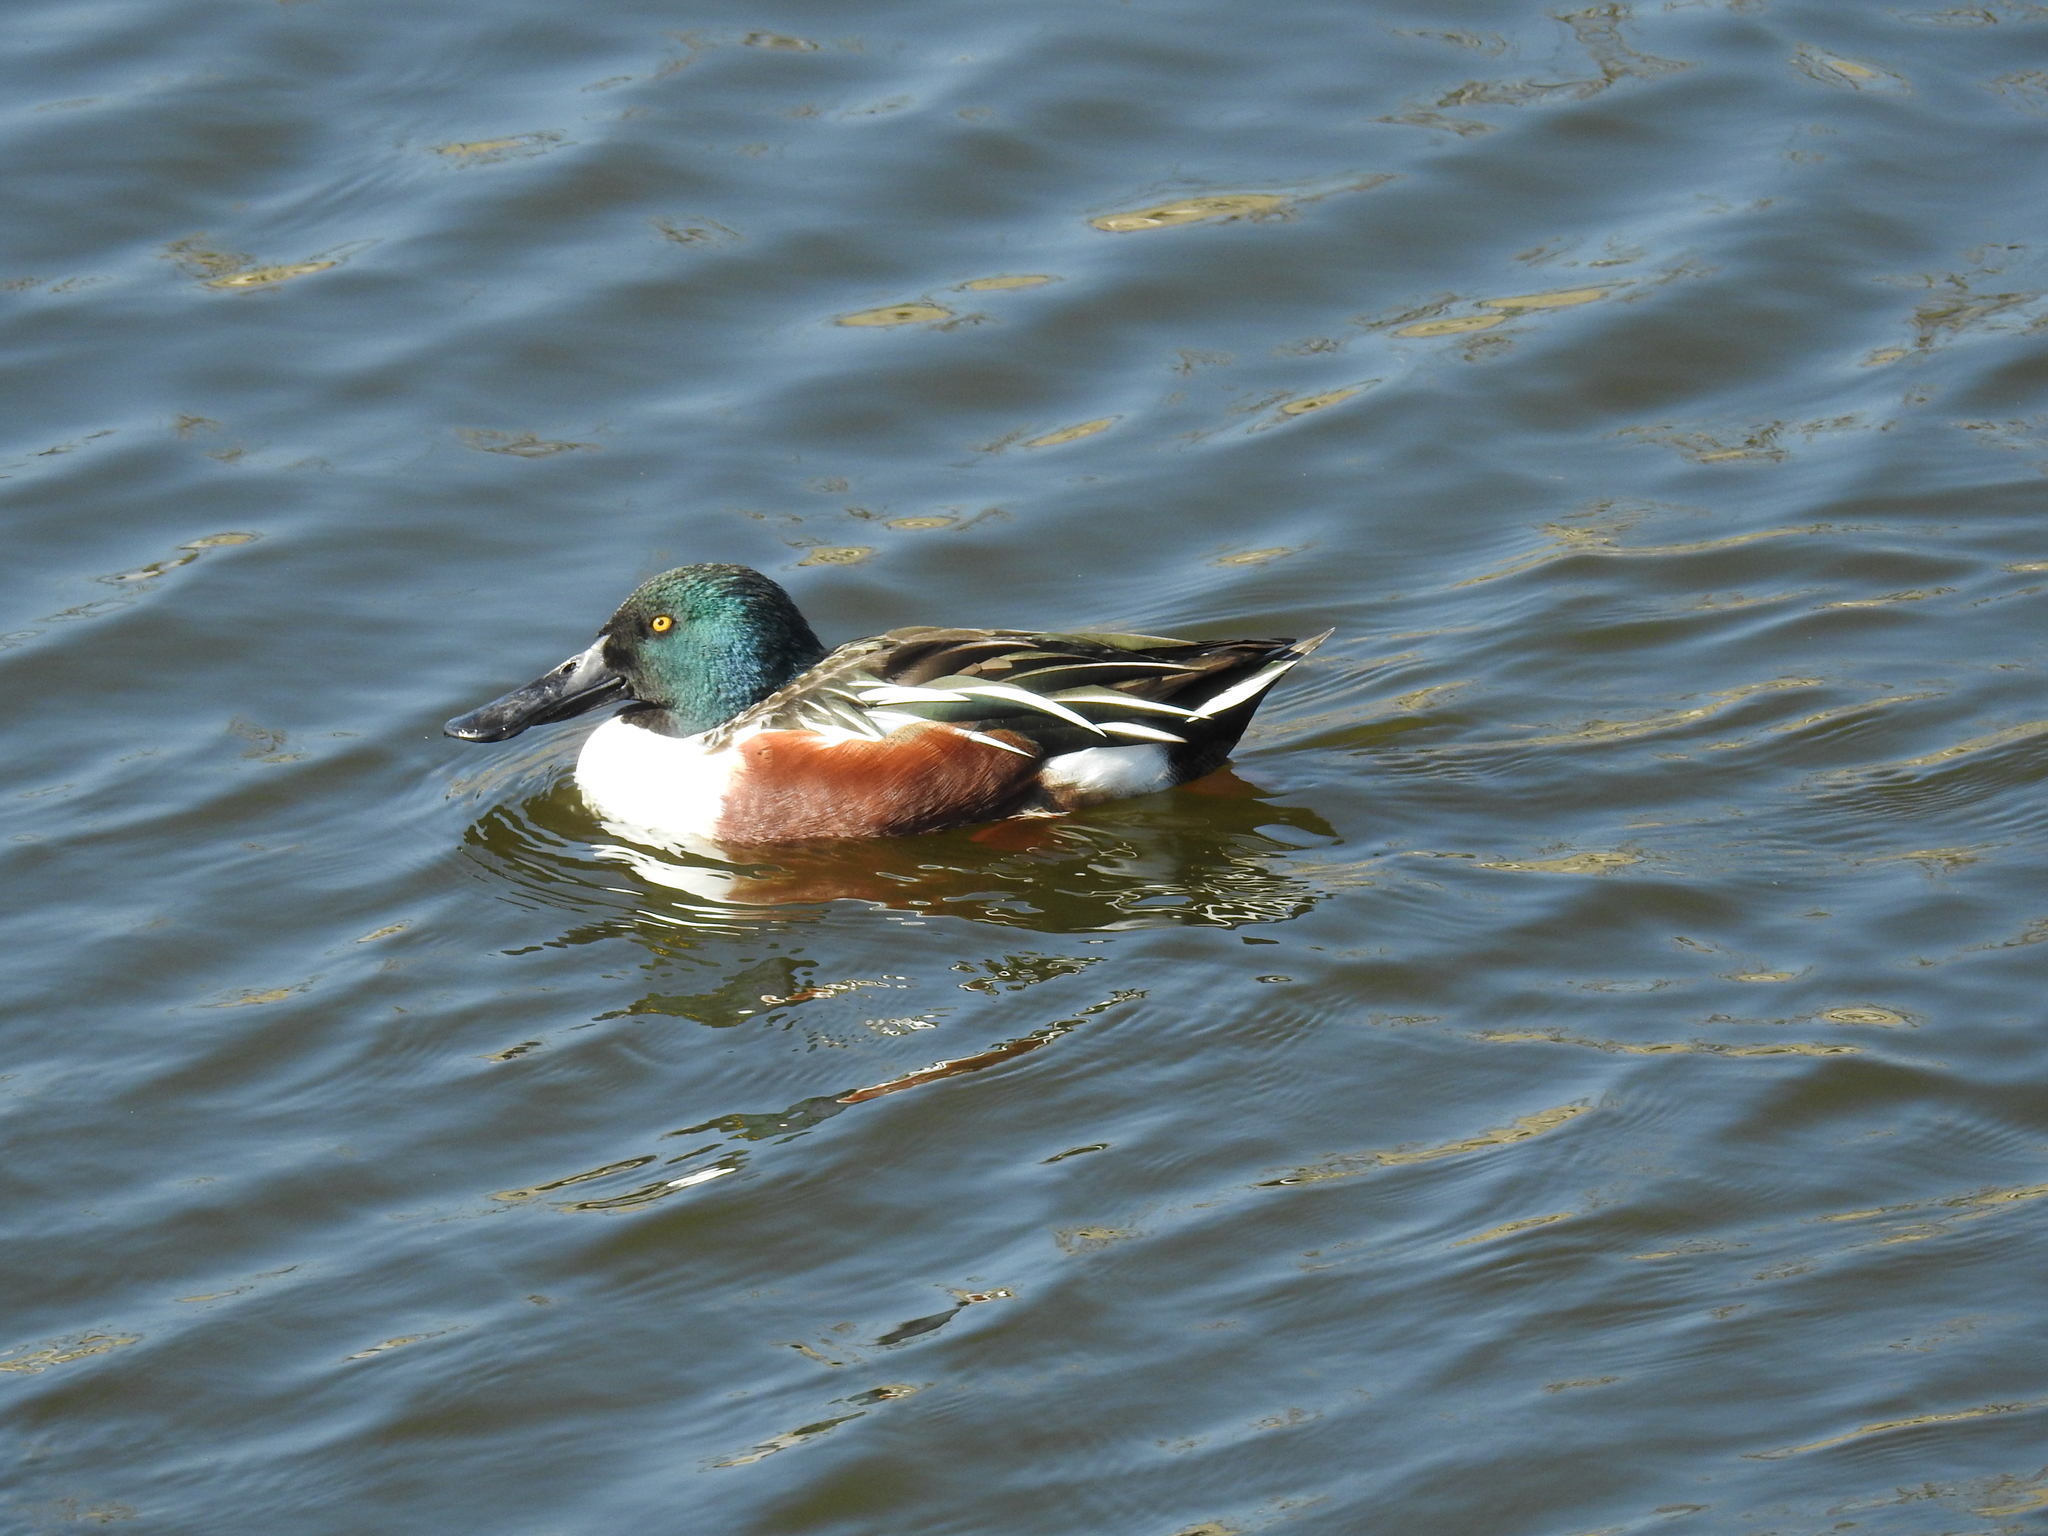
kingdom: Animalia
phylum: Chordata
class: Aves
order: Anseriformes
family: Anatidae
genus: Spatula
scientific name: Spatula clypeata
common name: Northern shoveler
